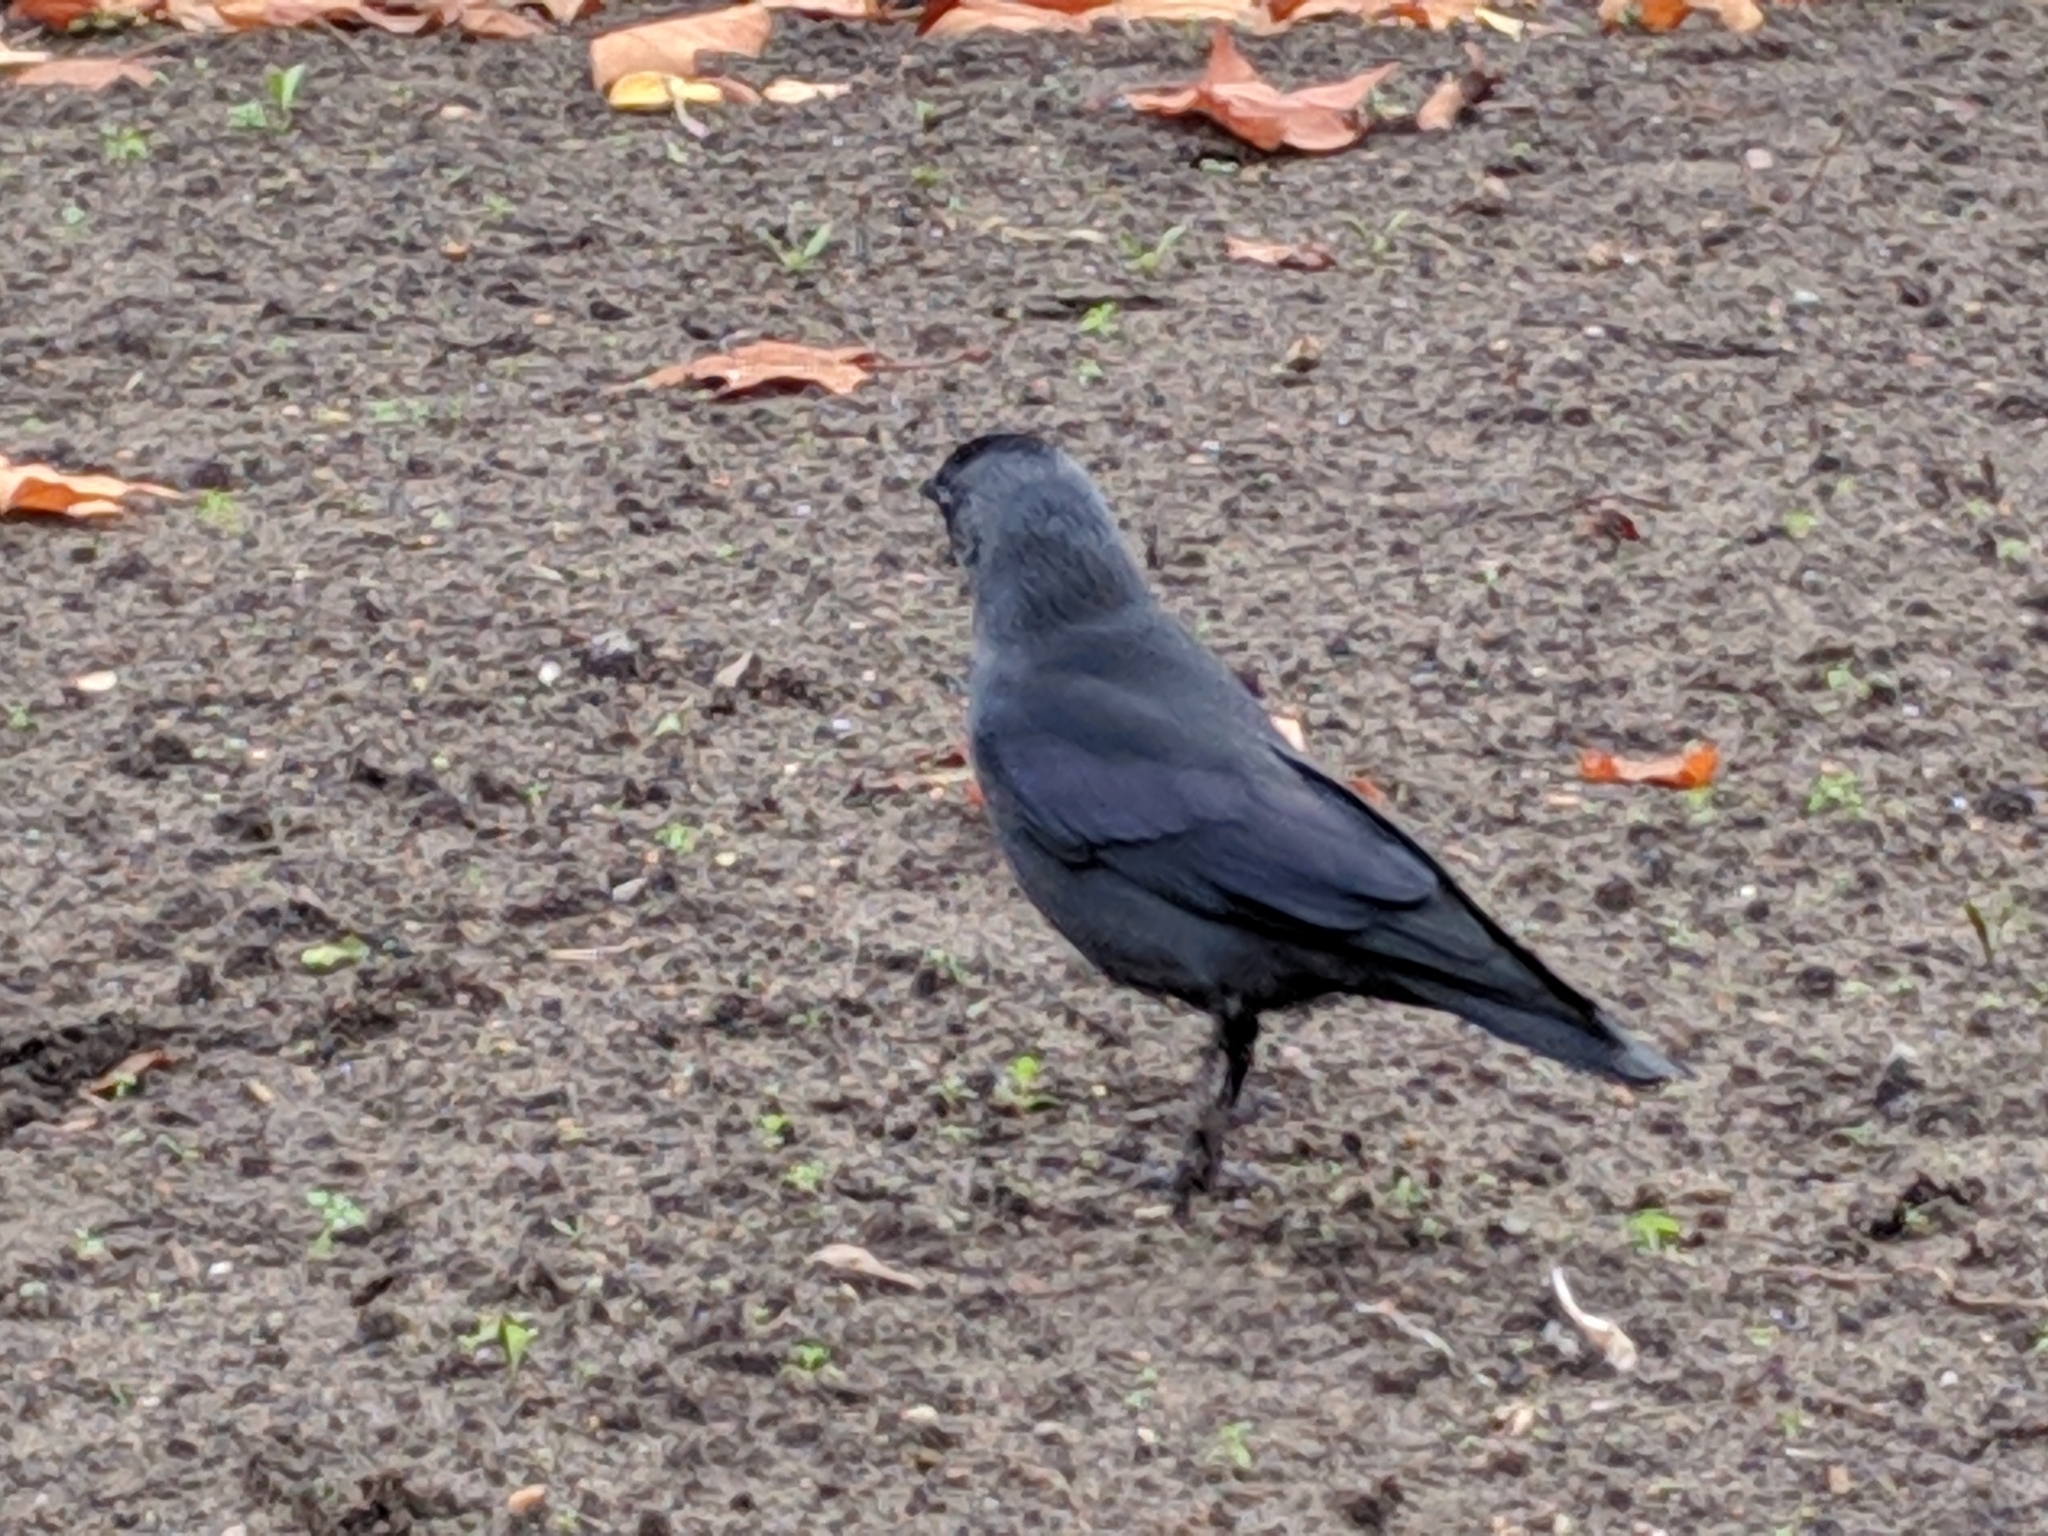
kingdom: Animalia
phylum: Chordata
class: Aves
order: Passeriformes
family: Corvidae
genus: Coloeus
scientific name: Coloeus monedula
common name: Western jackdaw
